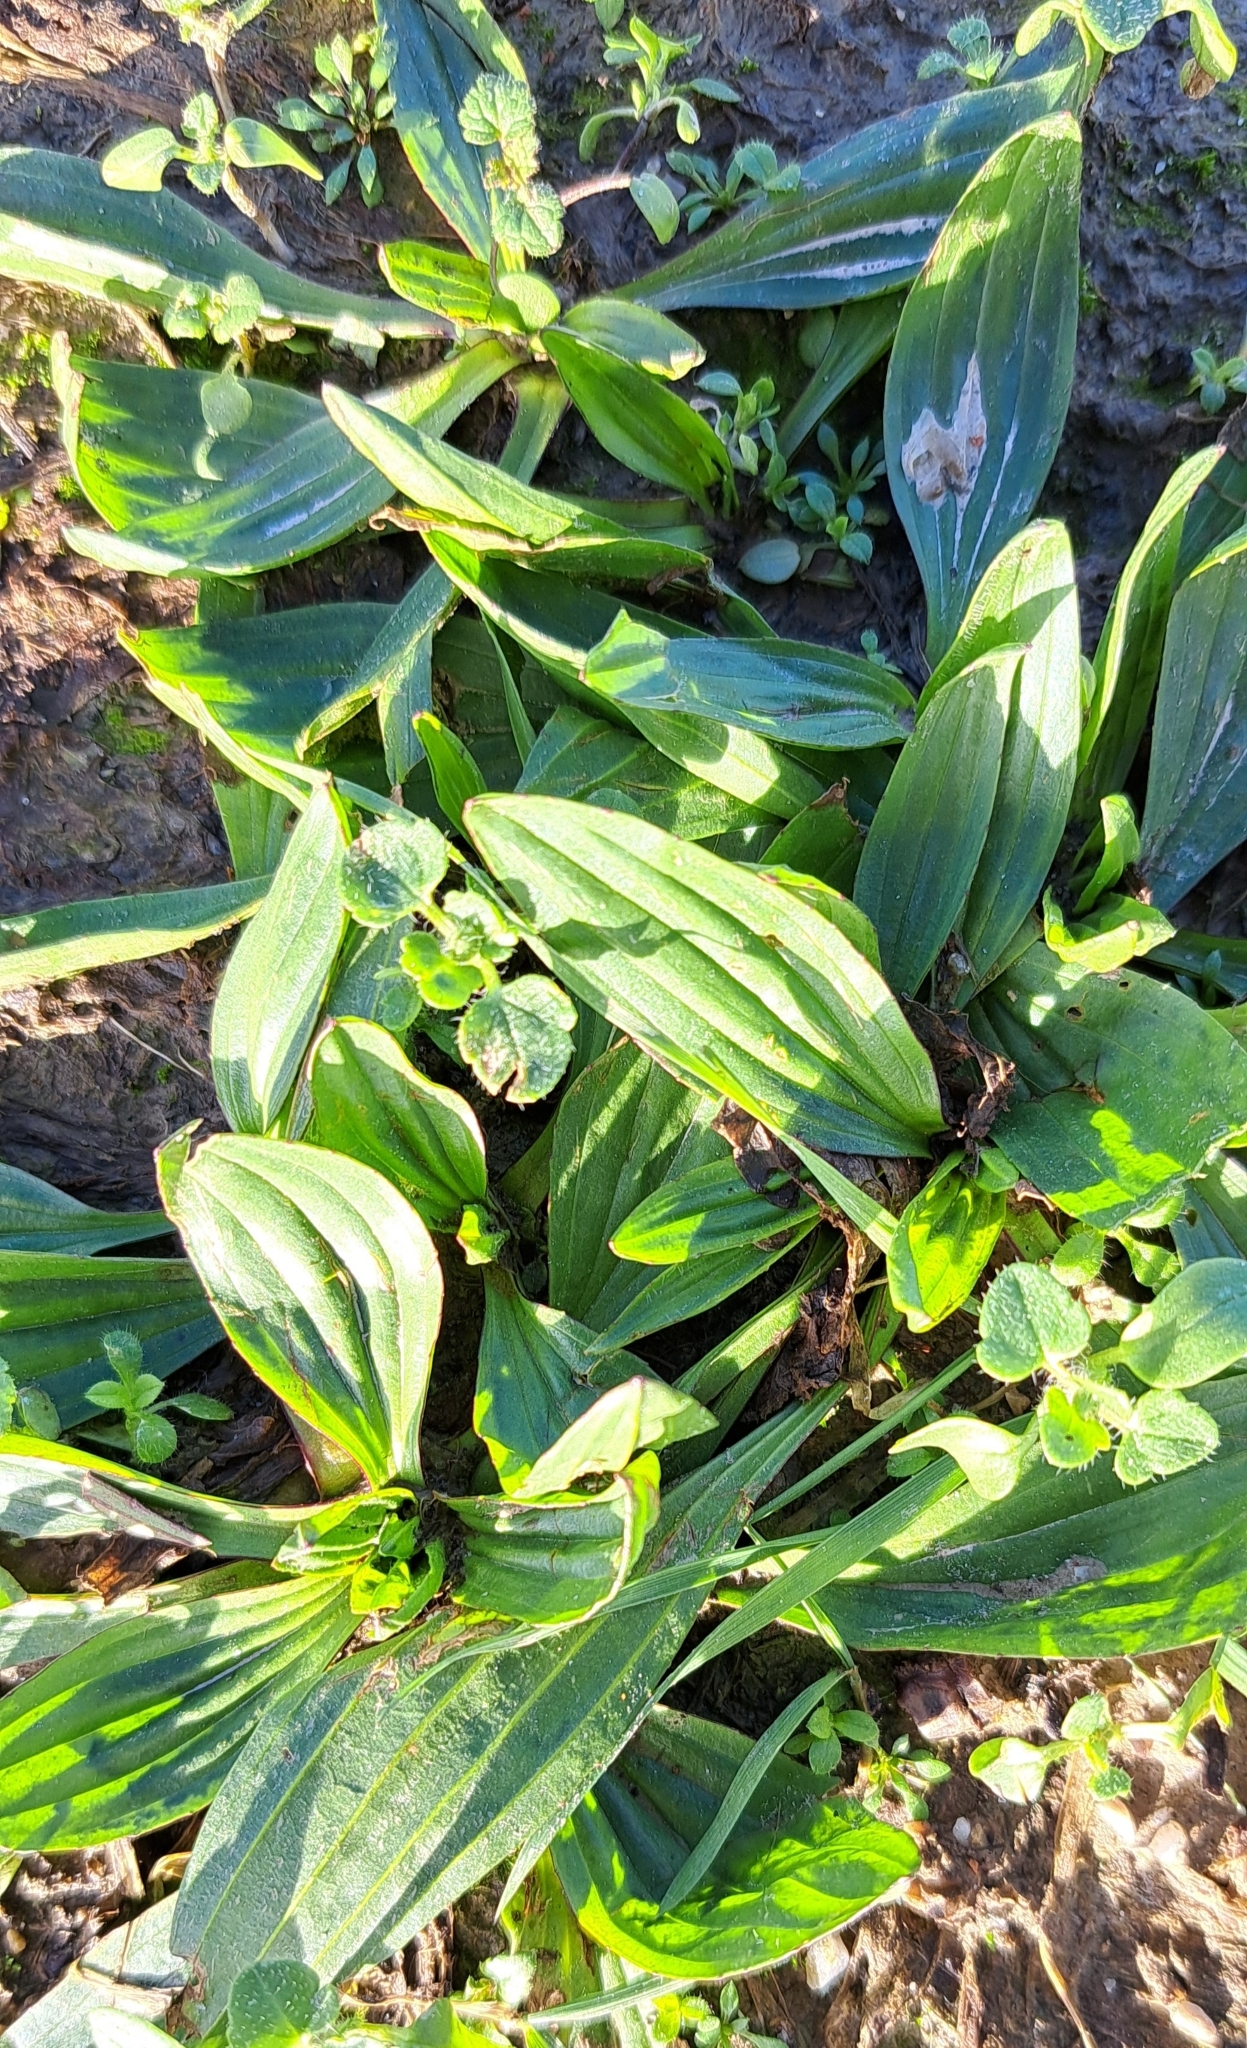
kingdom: Plantae
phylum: Tracheophyta
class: Magnoliopsida
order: Lamiales
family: Plantaginaceae
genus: Plantago
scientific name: Plantago lanceolata
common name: Ribwort plantain
